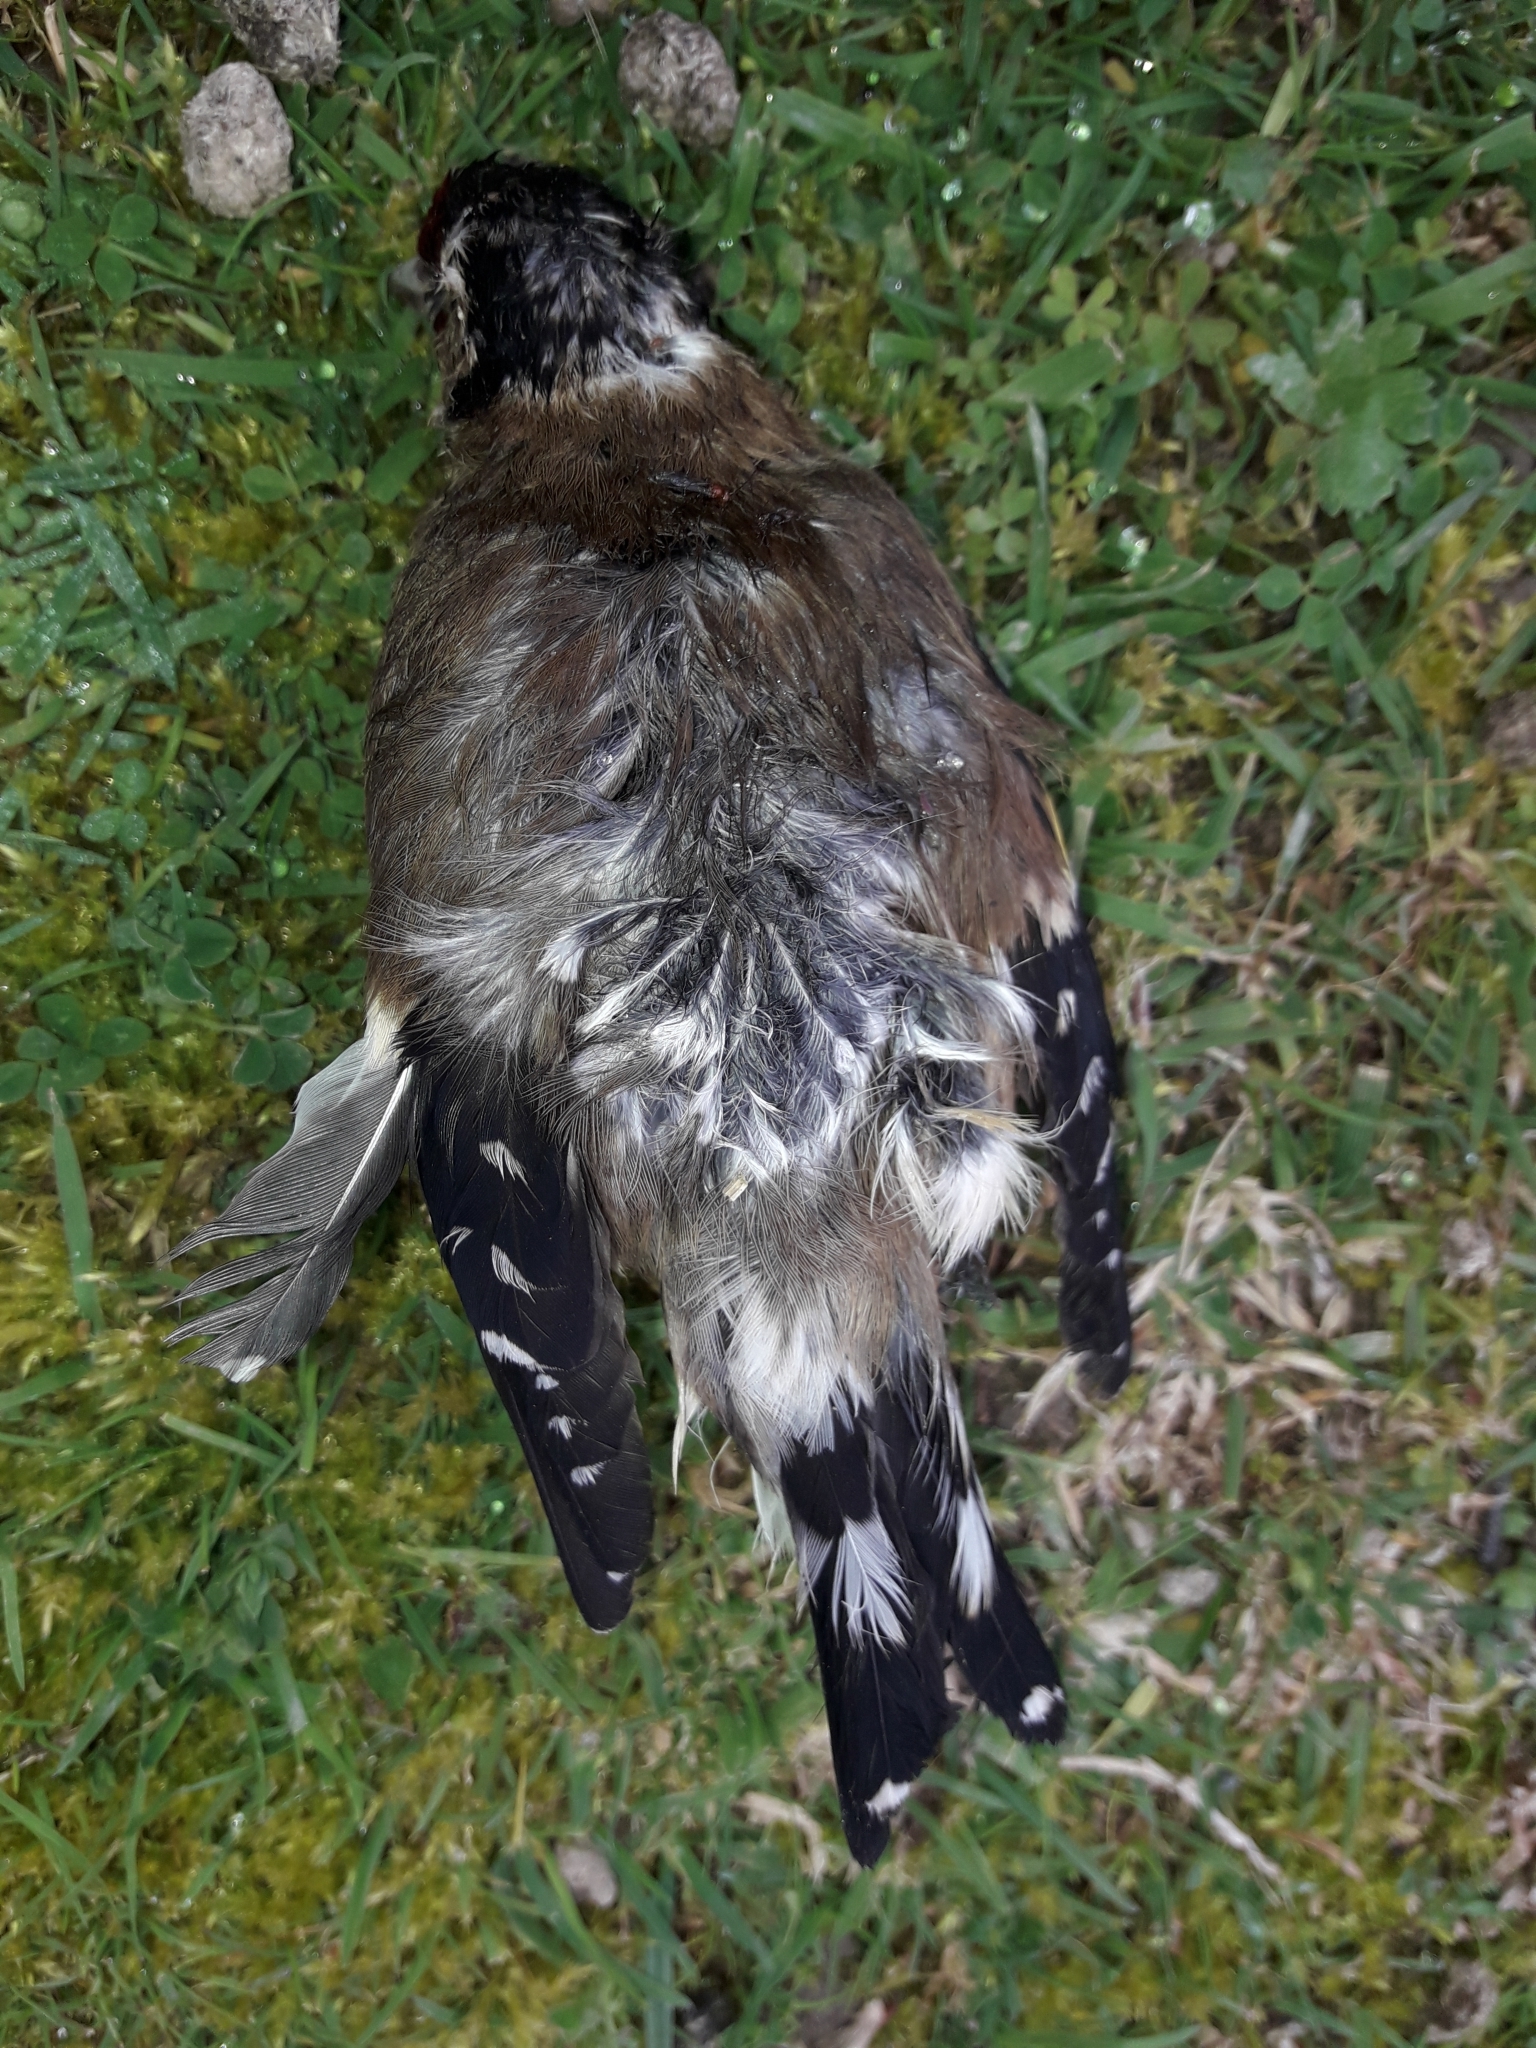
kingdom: Animalia
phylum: Chordata
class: Aves
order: Passeriformes
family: Fringillidae
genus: Carduelis
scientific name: Carduelis carduelis
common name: European goldfinch
